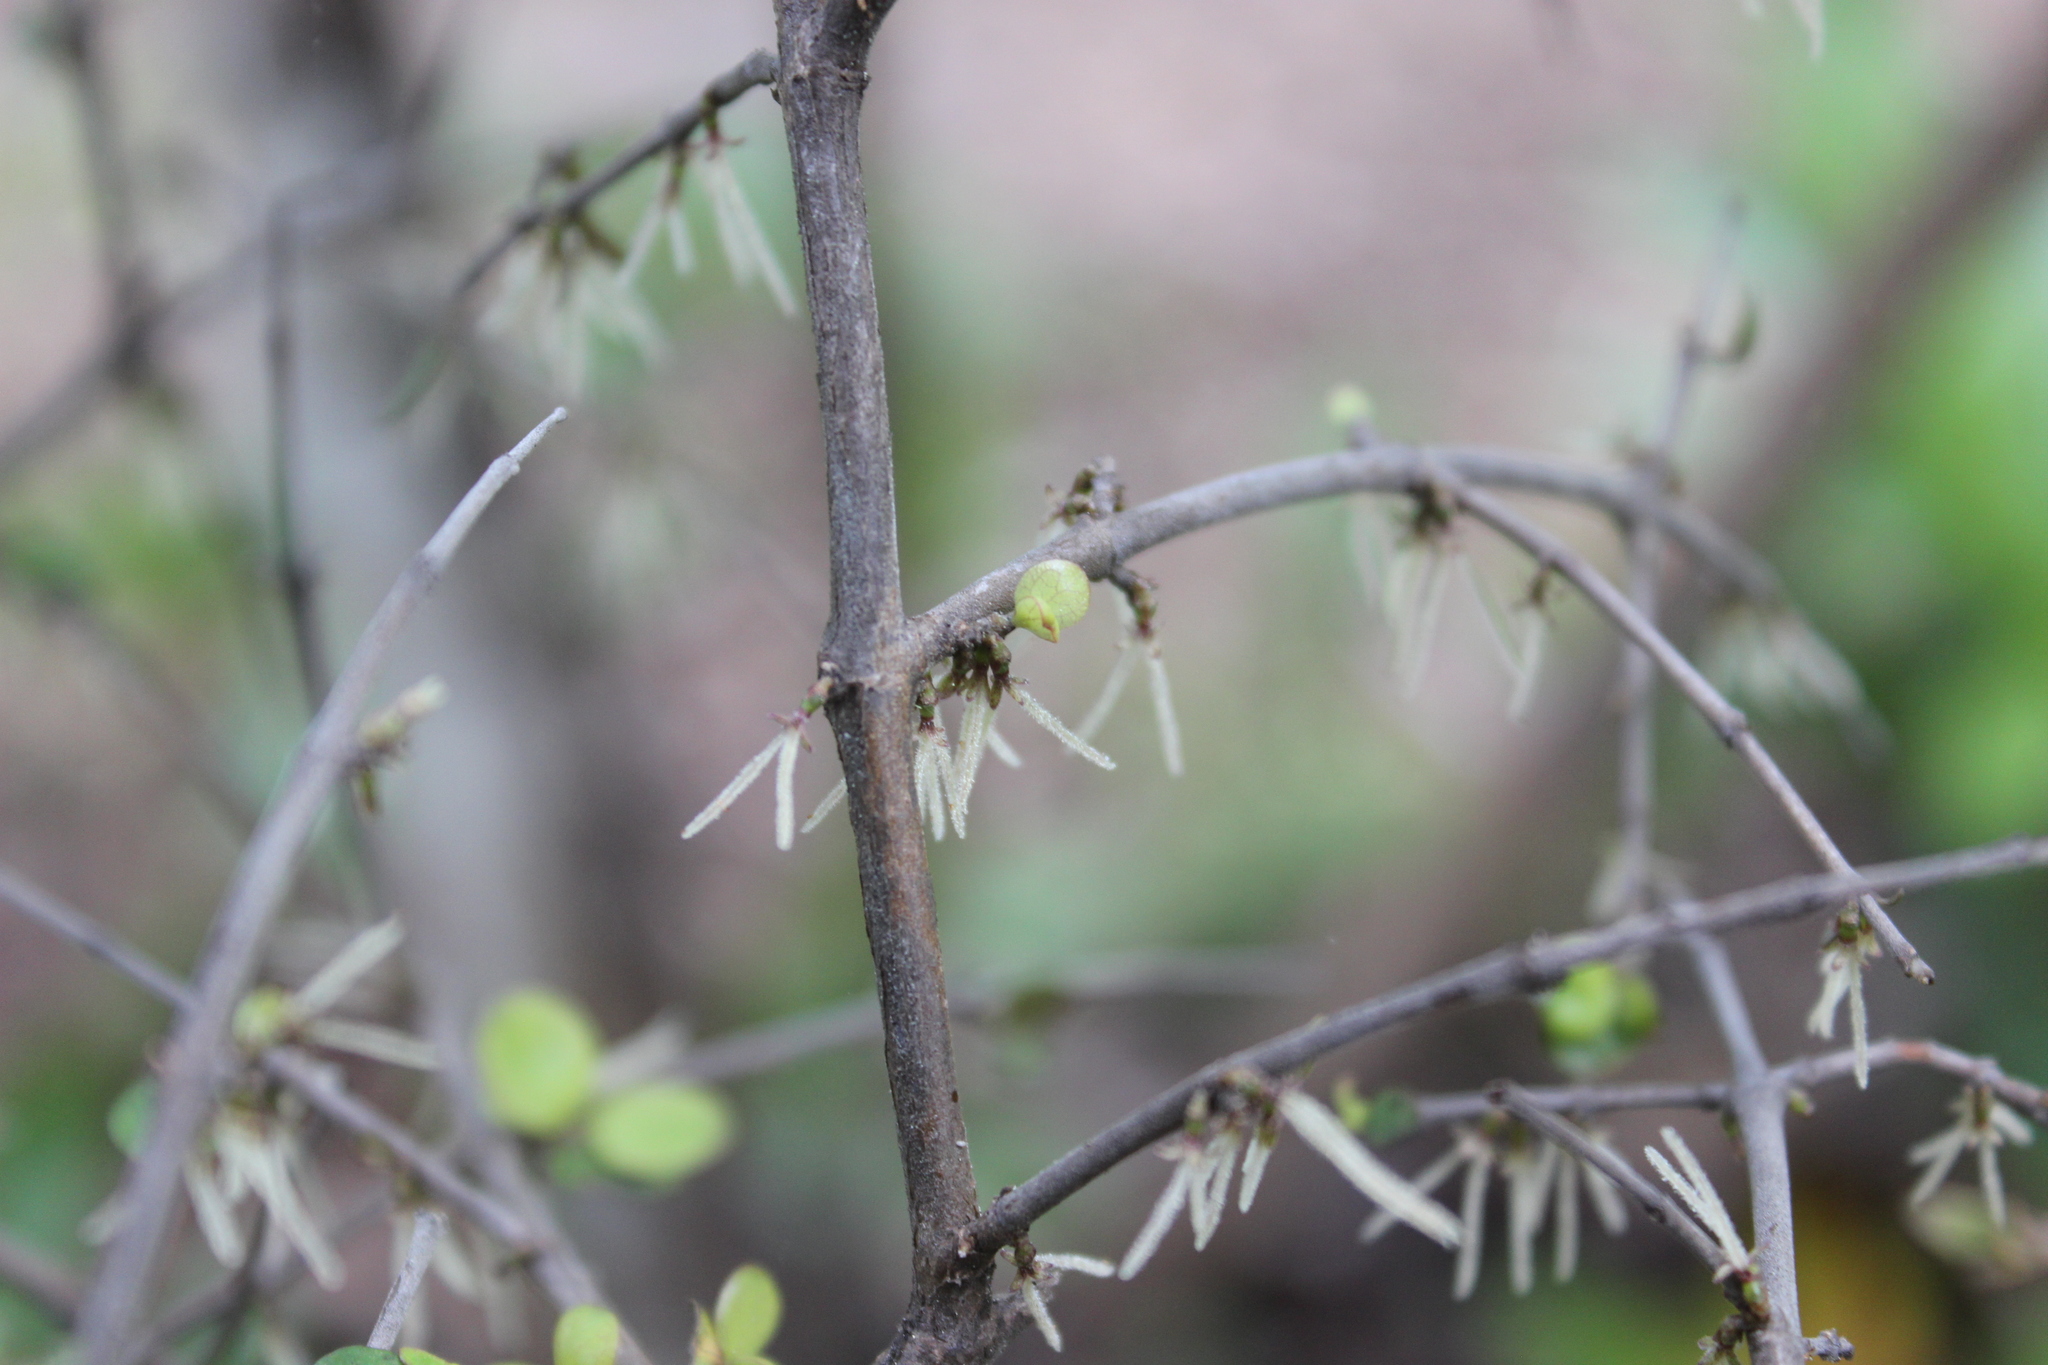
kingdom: Plantae
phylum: Tracheophyta
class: Magnoliopsida
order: Gentianales
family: Rubiaceae
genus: Coprosma
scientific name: Coprosma rhamnoides
